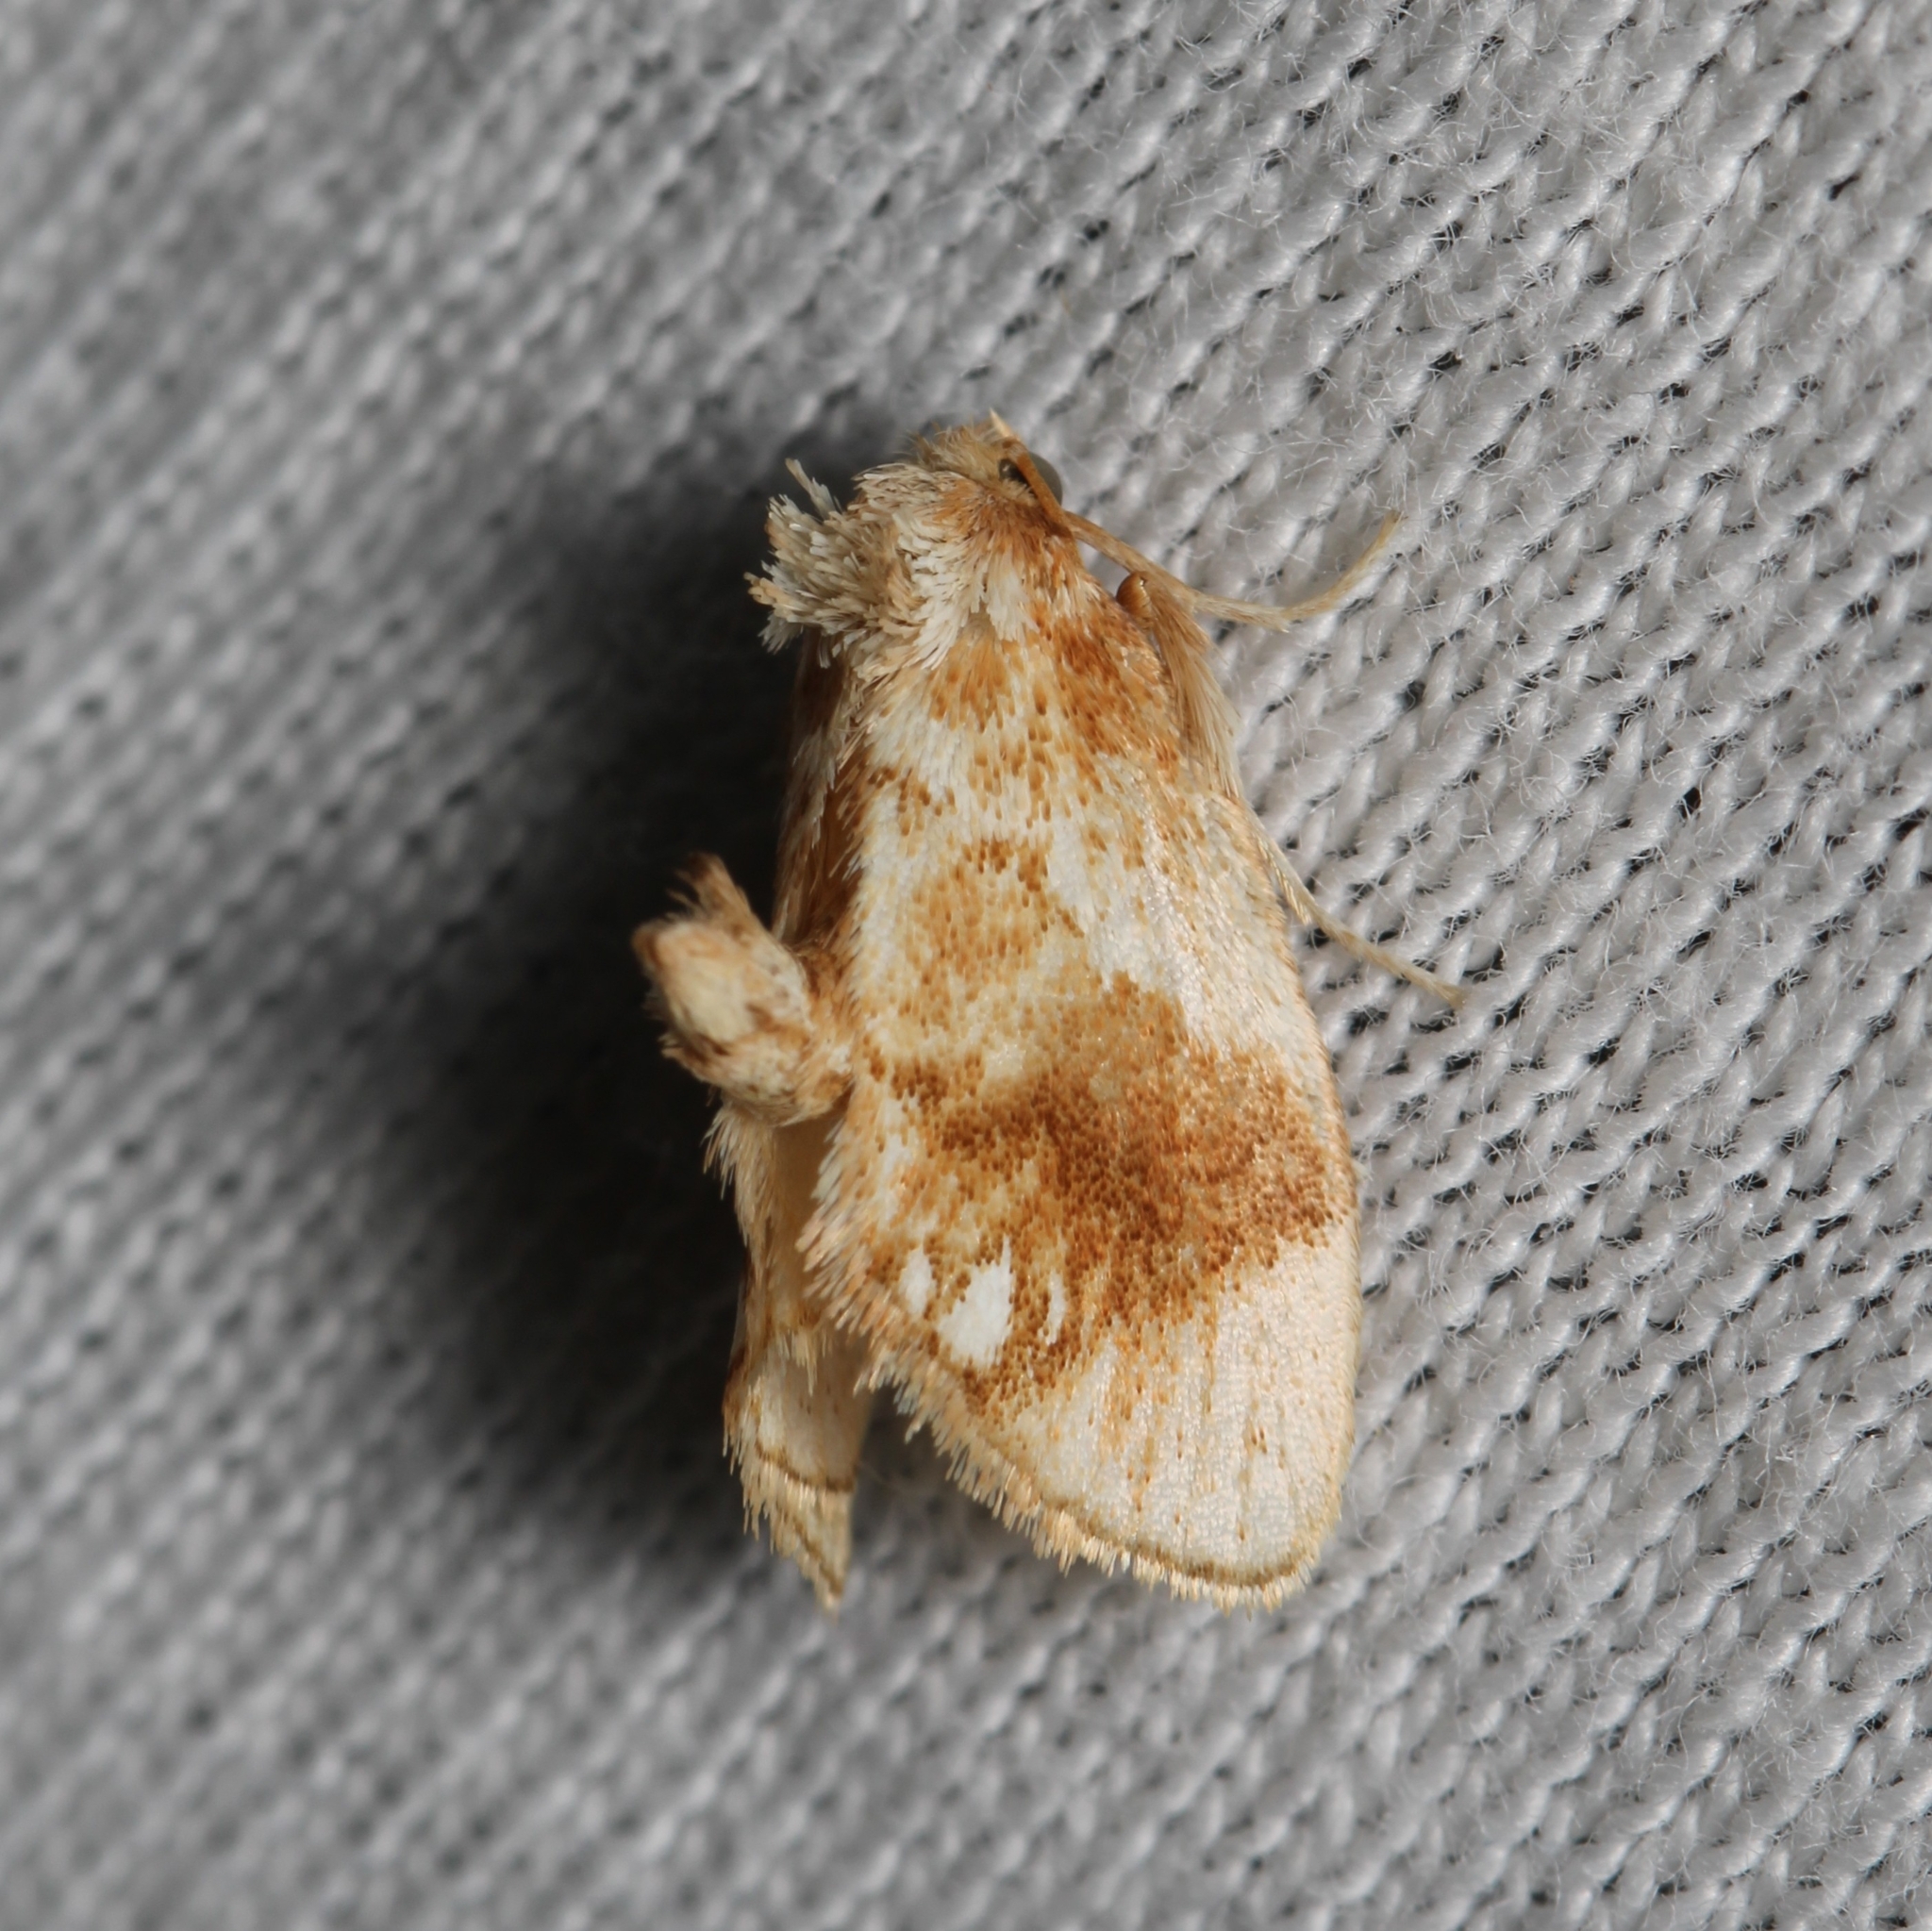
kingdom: Animalia
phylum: Arthropoda
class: Insecta
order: Lepidoptera
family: Limacodidae
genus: Packardia
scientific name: Packardia geminata
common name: Jeweled tailed slug moth
